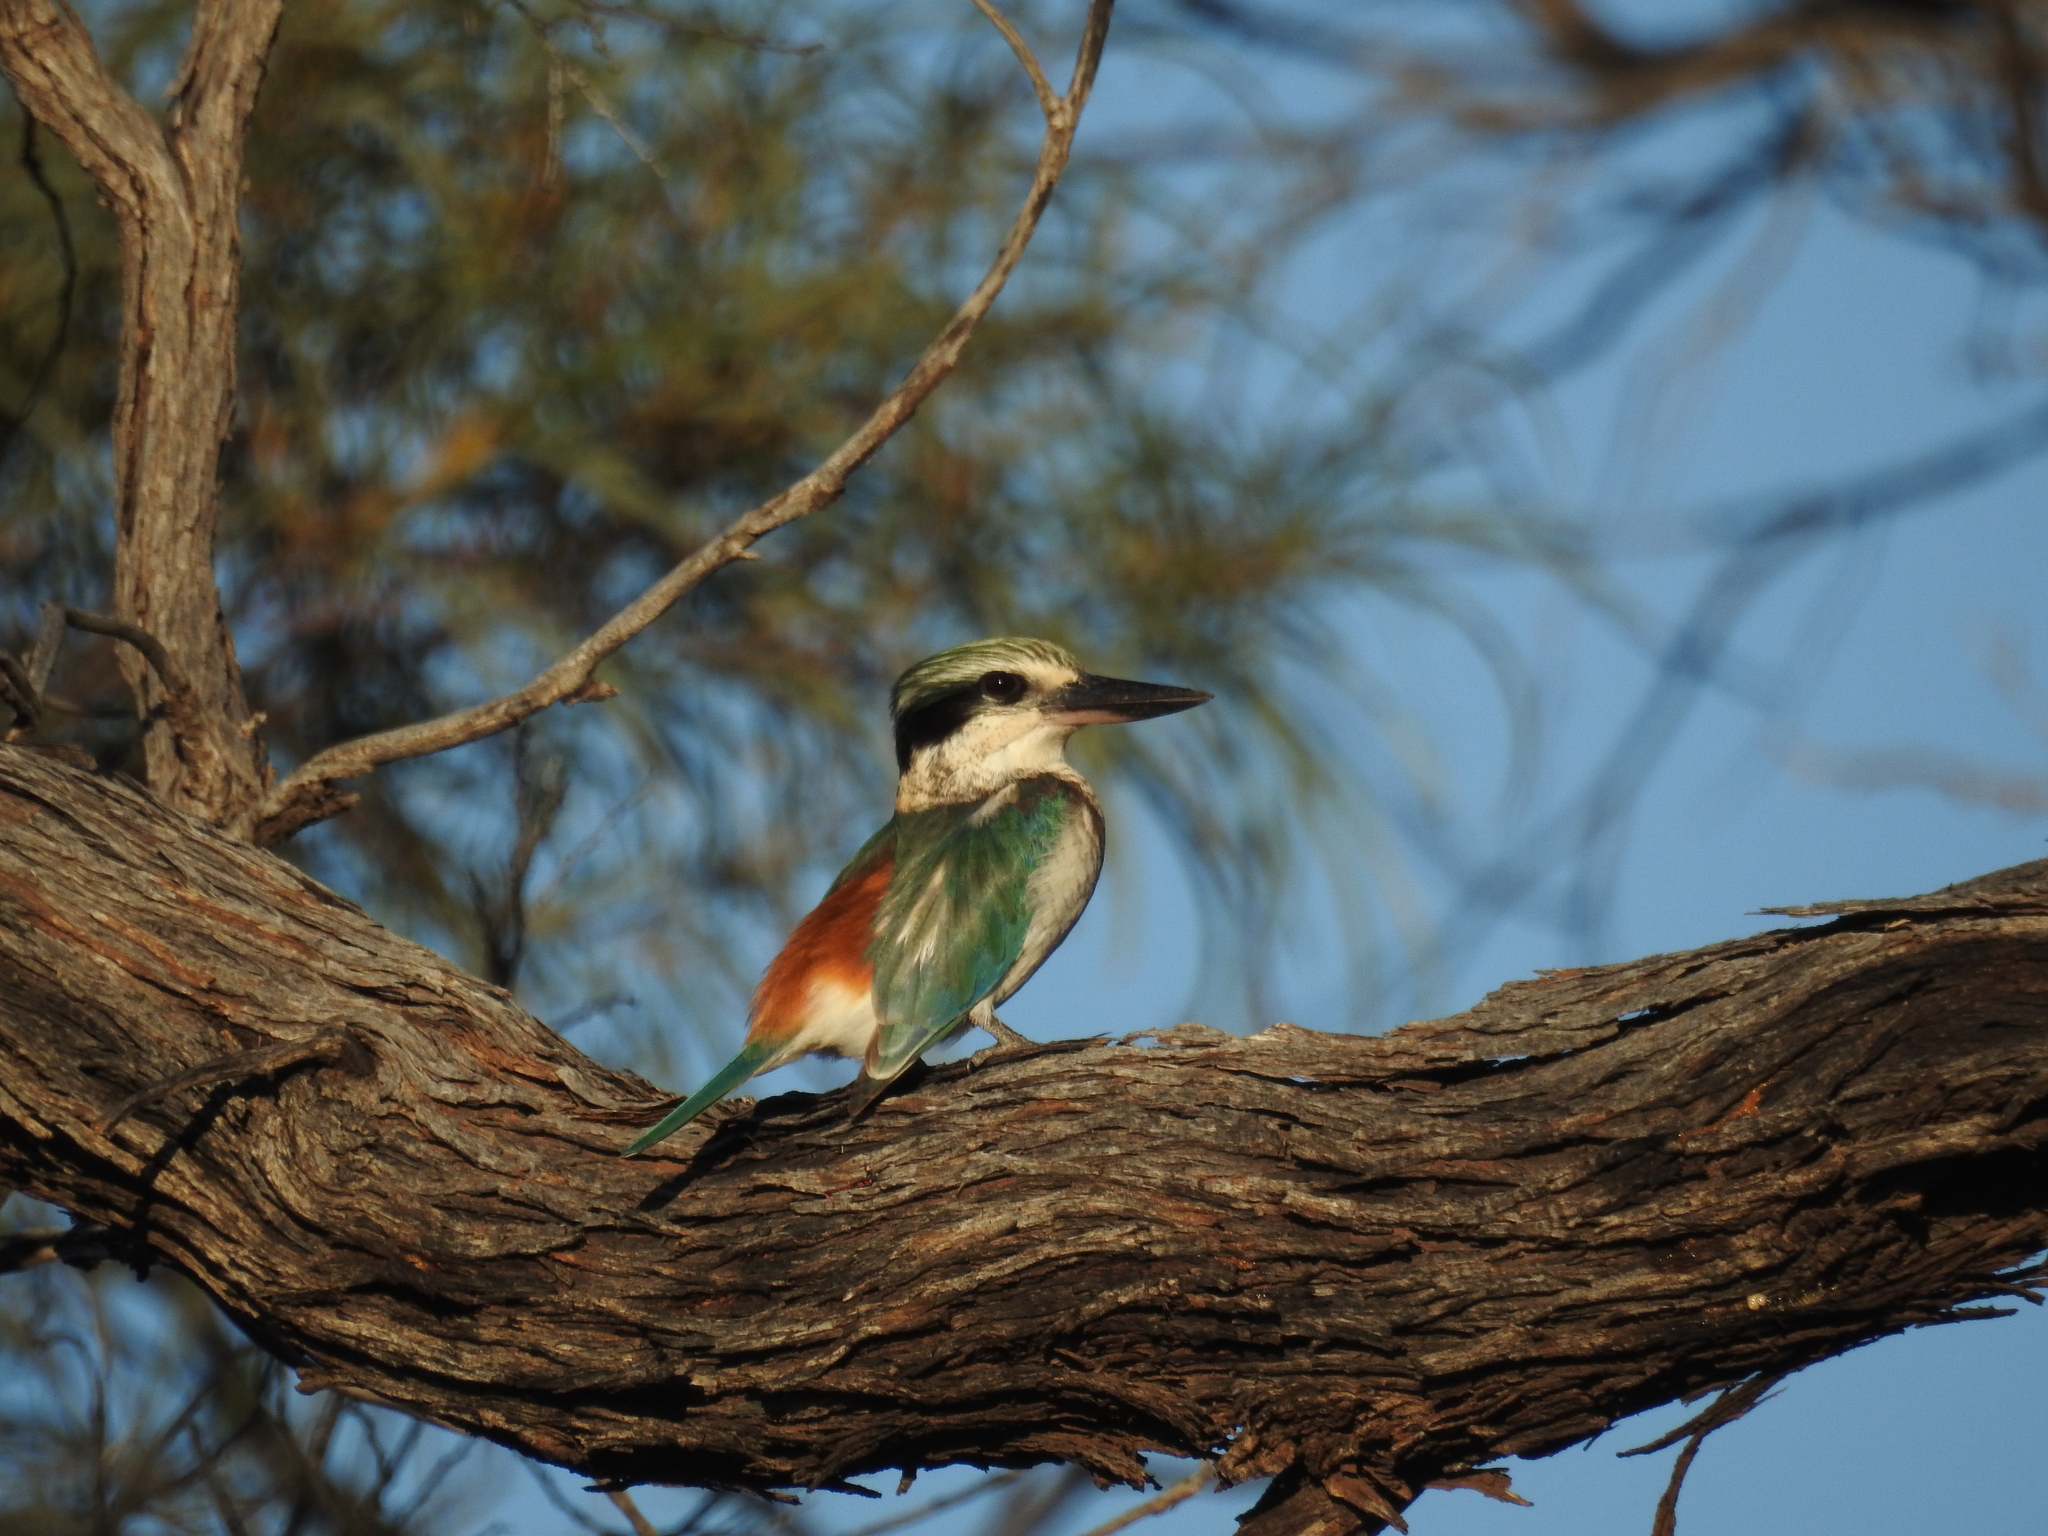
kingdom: Animalia
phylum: Chordata
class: Aves
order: Coraciiformes
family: Alcedinidae
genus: Todiramphus
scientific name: Todiramphus pyrrhopygius
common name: Red-backed kingfisher
